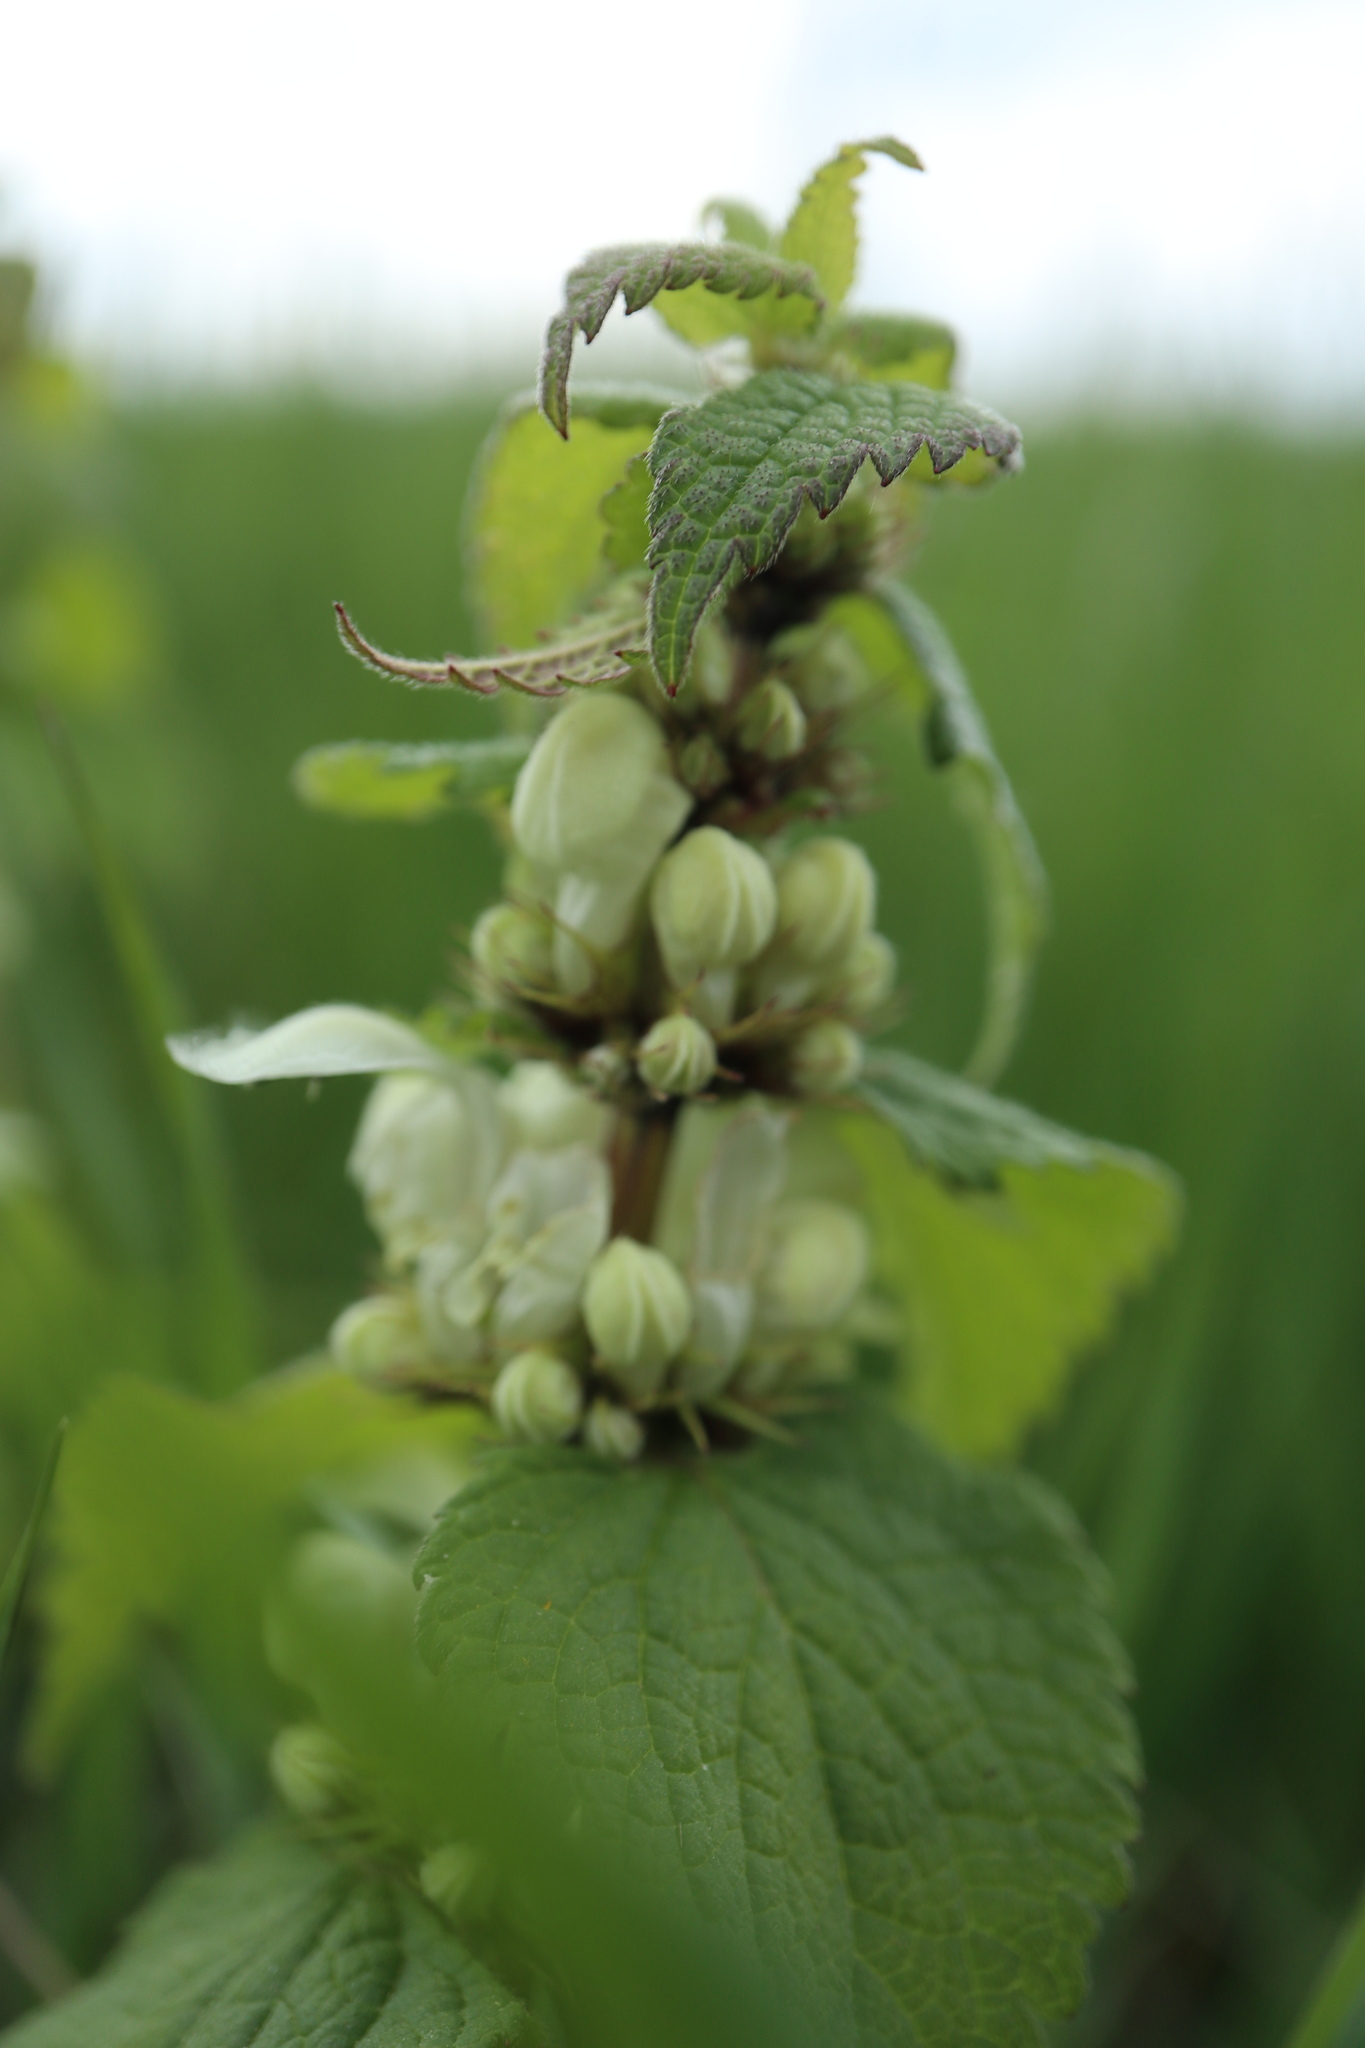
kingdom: Plantae
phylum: Tracheophyta
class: Magnoliopsida
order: Lamiales
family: Lamiaceae
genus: Lamium
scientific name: Lamium album
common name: White dead-nettle
